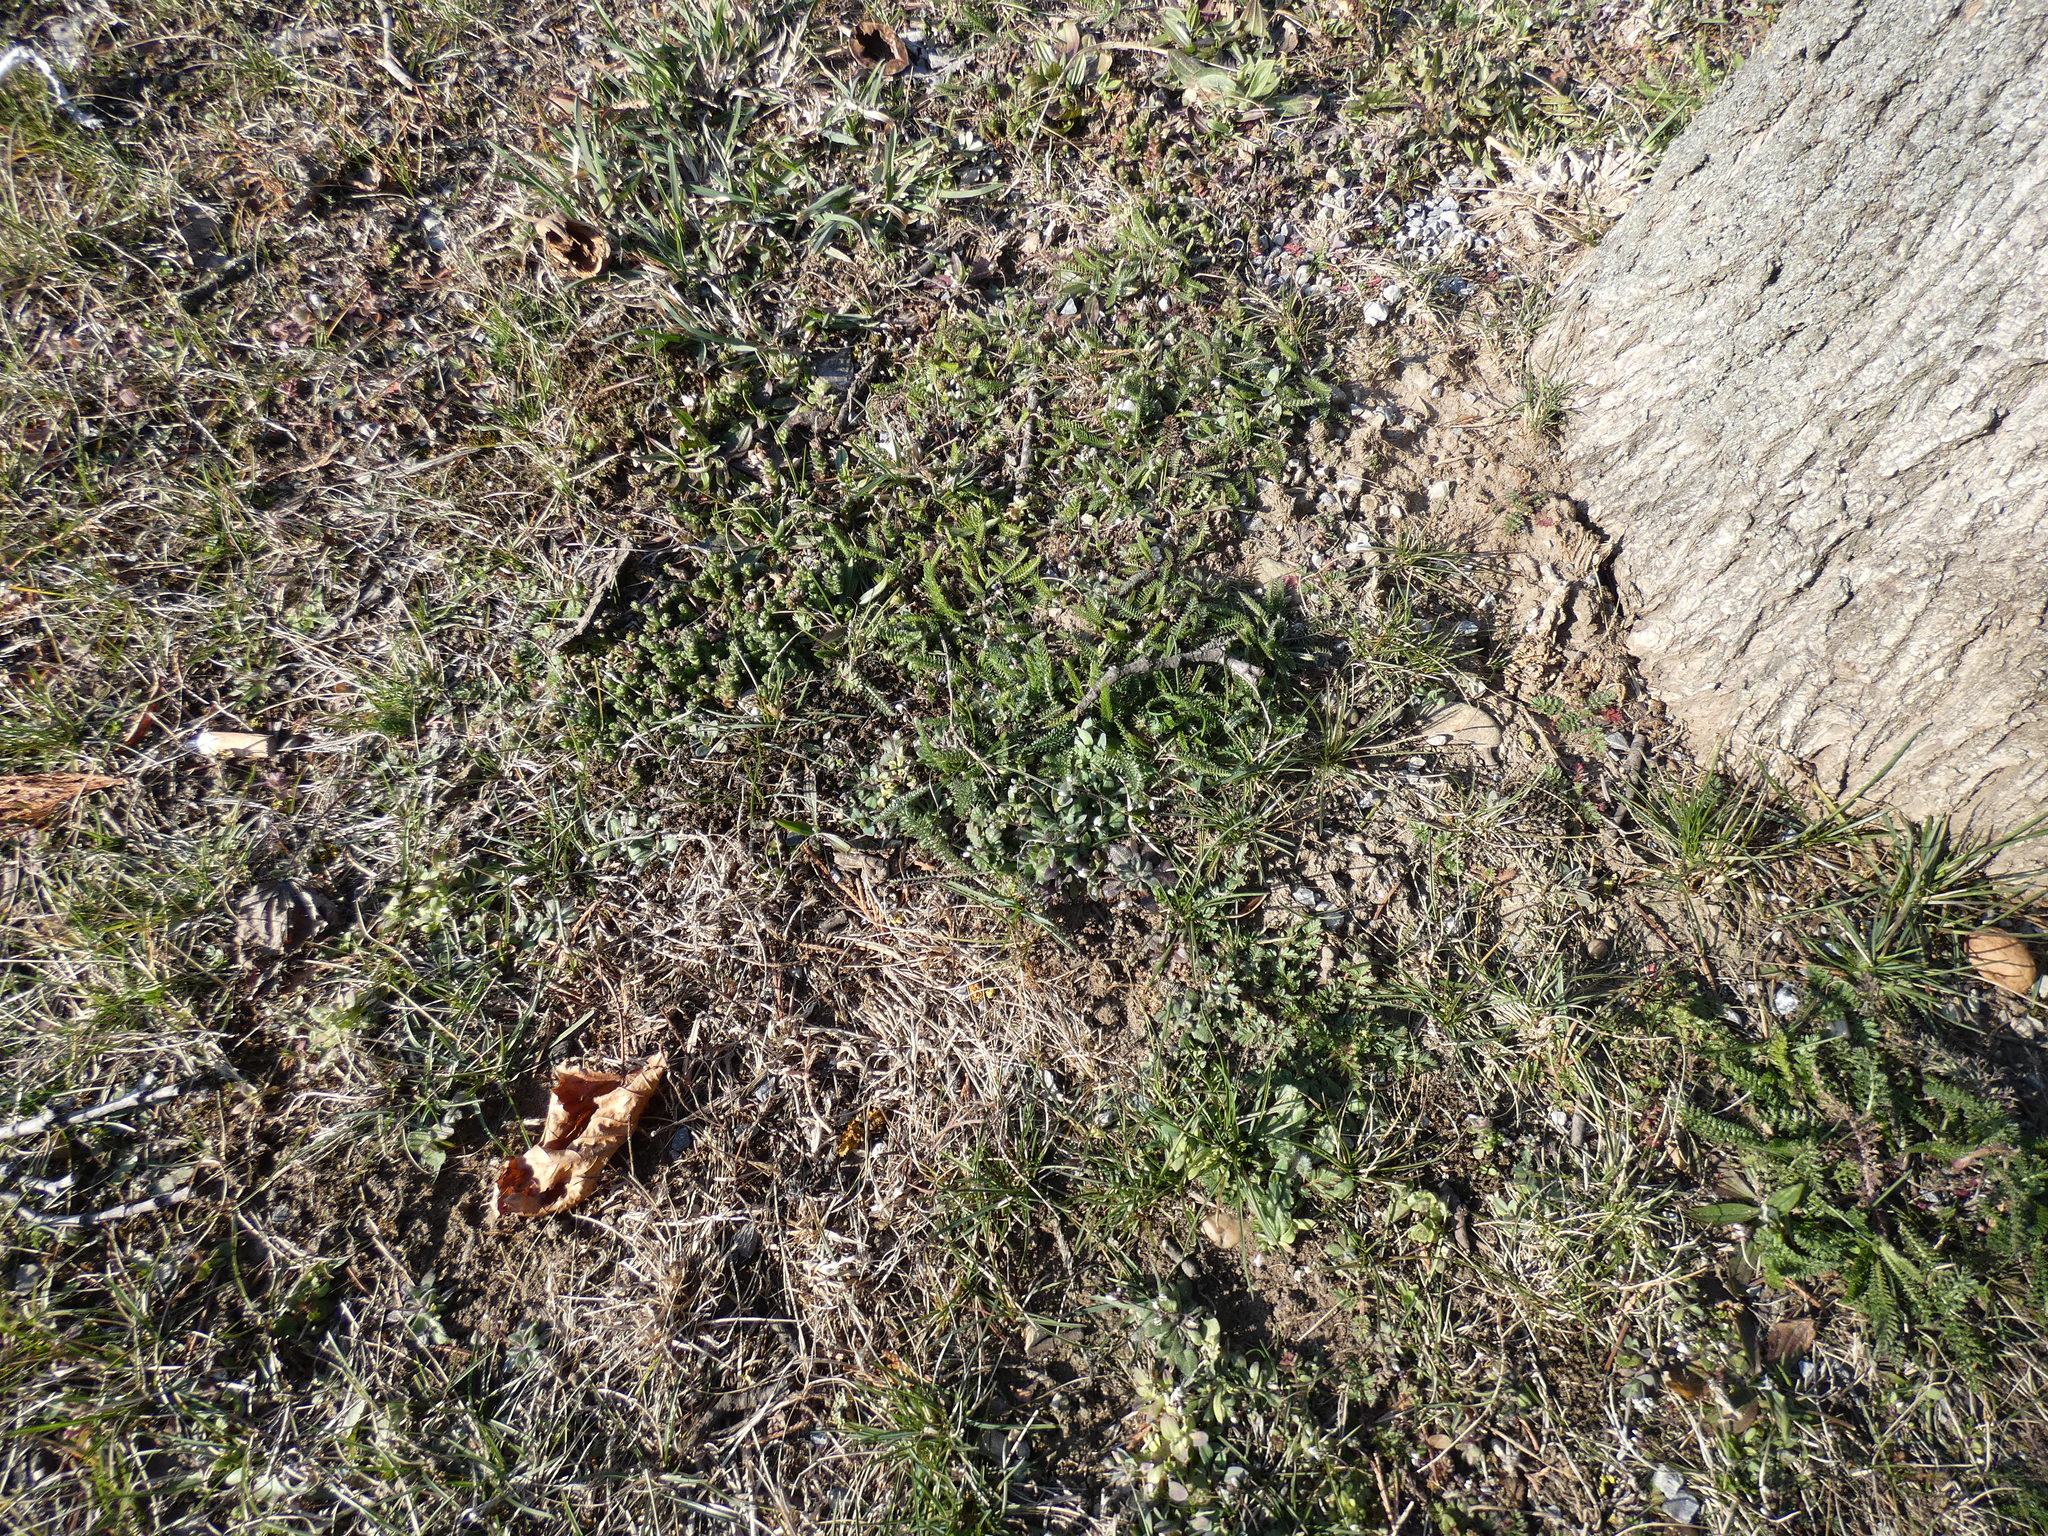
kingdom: Plantae
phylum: Tracheophyta
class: Magnoliopsida
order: Caryophyllales
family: Caryophyllaceae
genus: Holosteum
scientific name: Holosteum umbellatum
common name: Jagged chickweed
